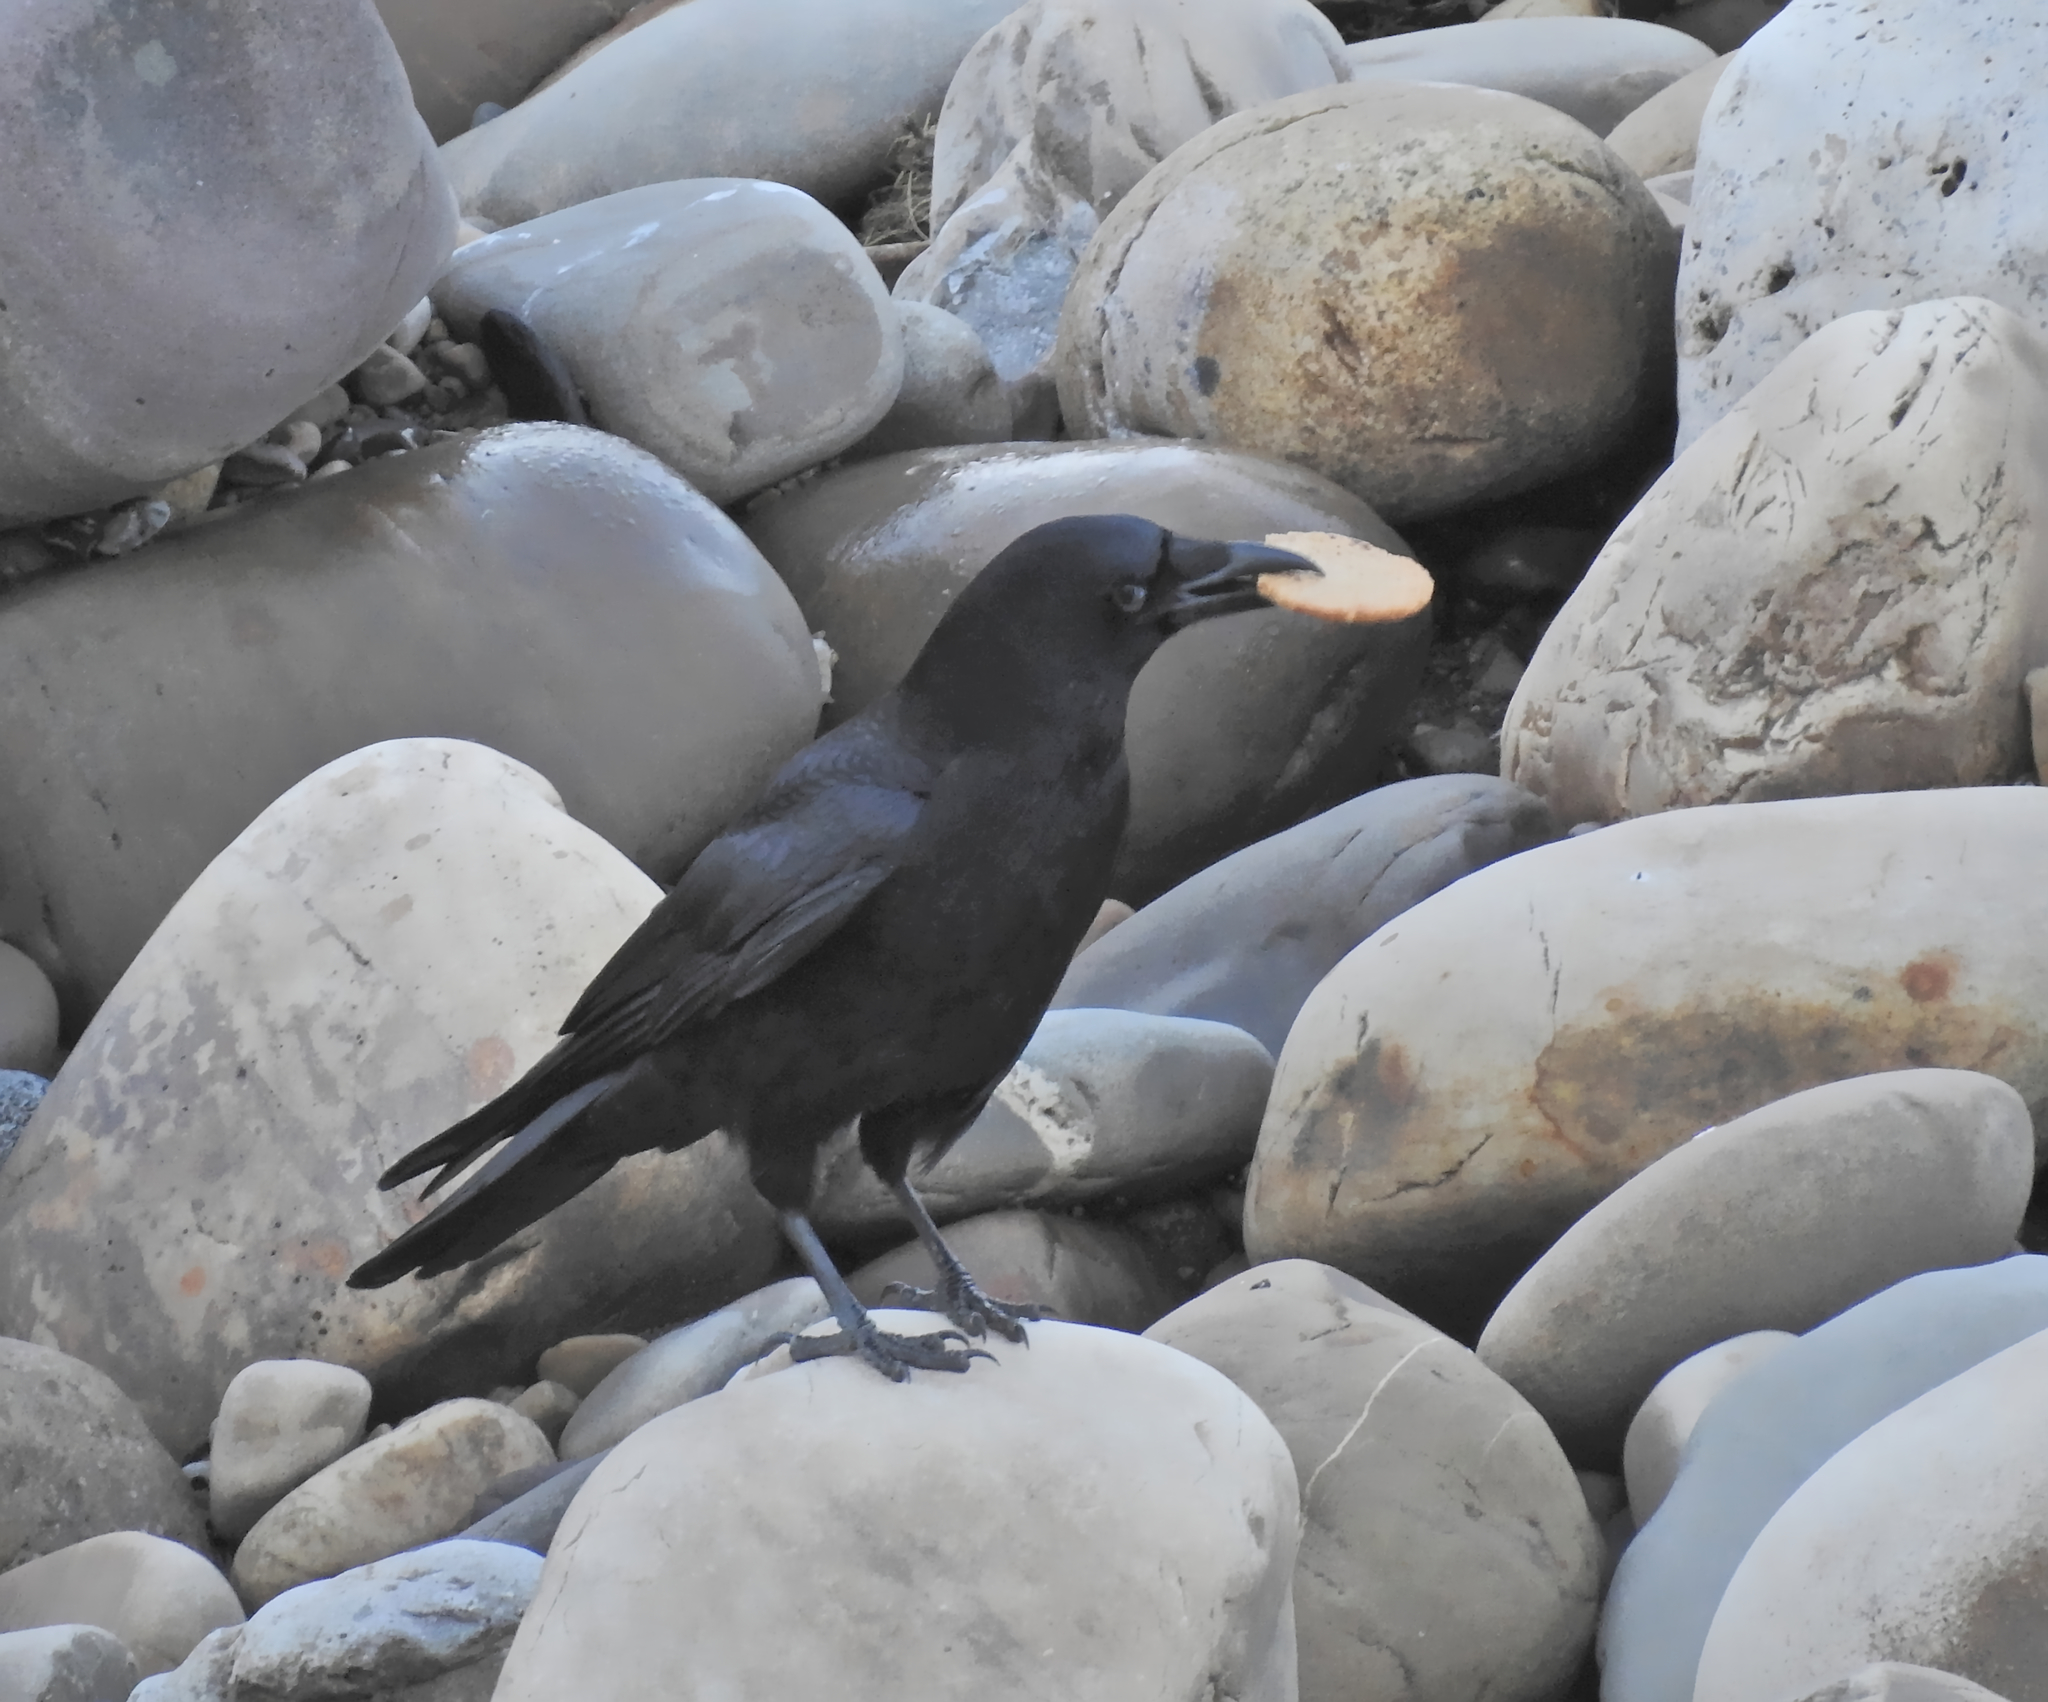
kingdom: Animalia
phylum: Chordata
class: Aves
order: Passeriformes
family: Corvidae
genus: Corvus
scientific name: Corvus corone
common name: Carrion crow
